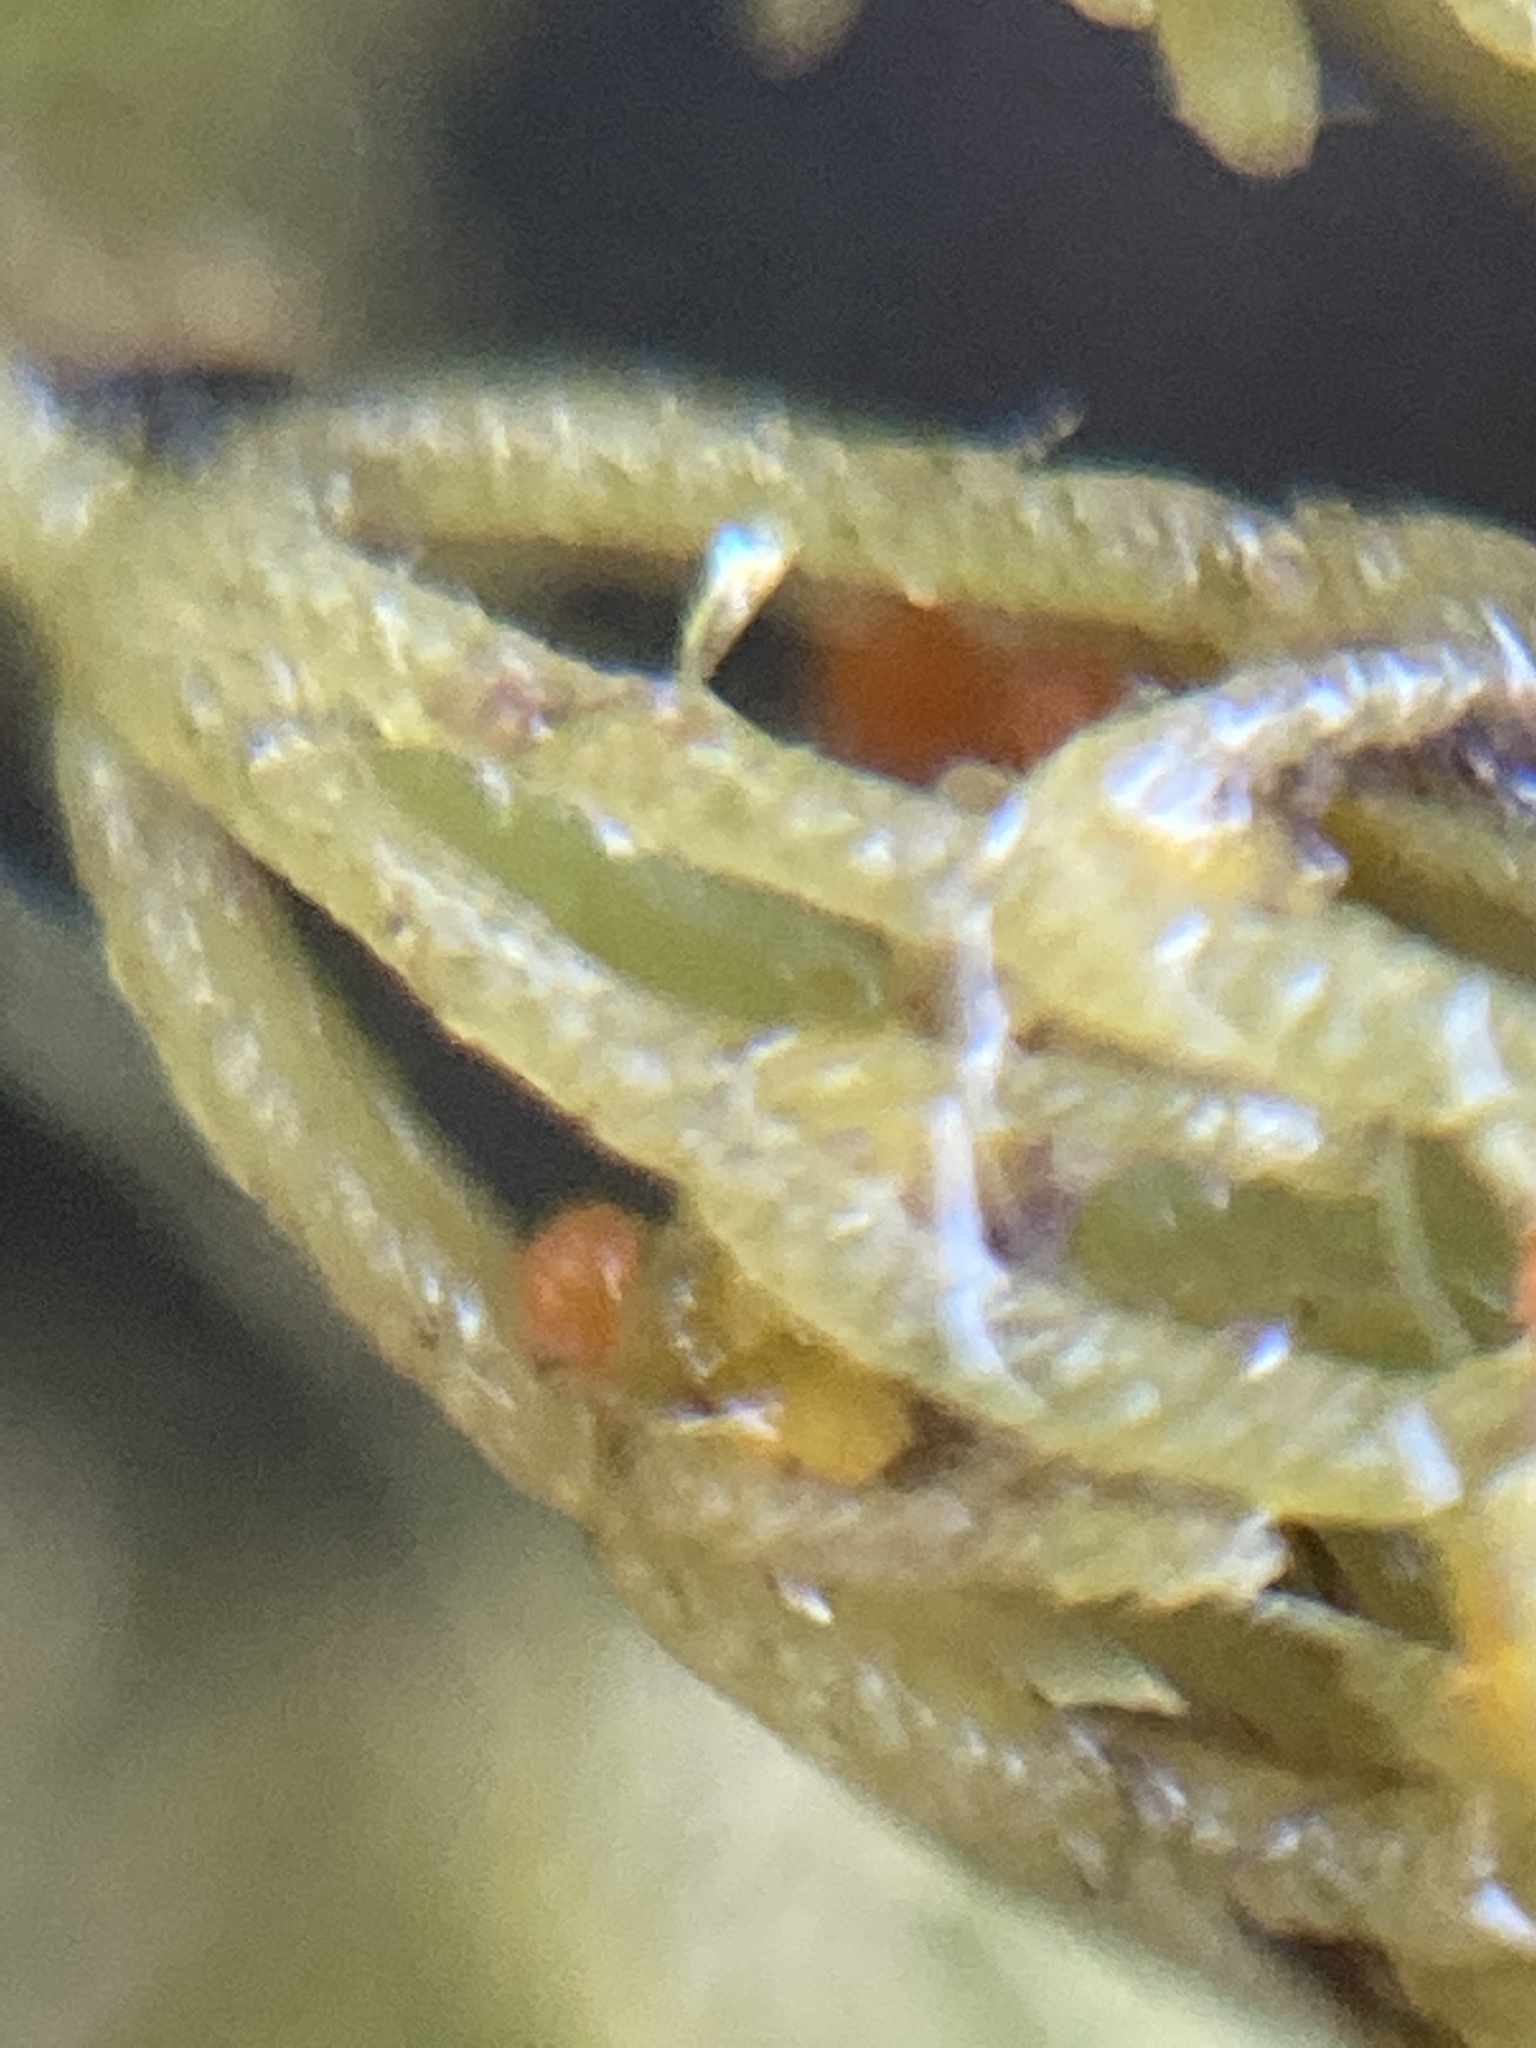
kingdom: Plantae
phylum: Charophyta
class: Charophyceae
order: Charales
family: Characeae
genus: Chara
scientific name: Chara vulgaris
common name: Common stonewort
